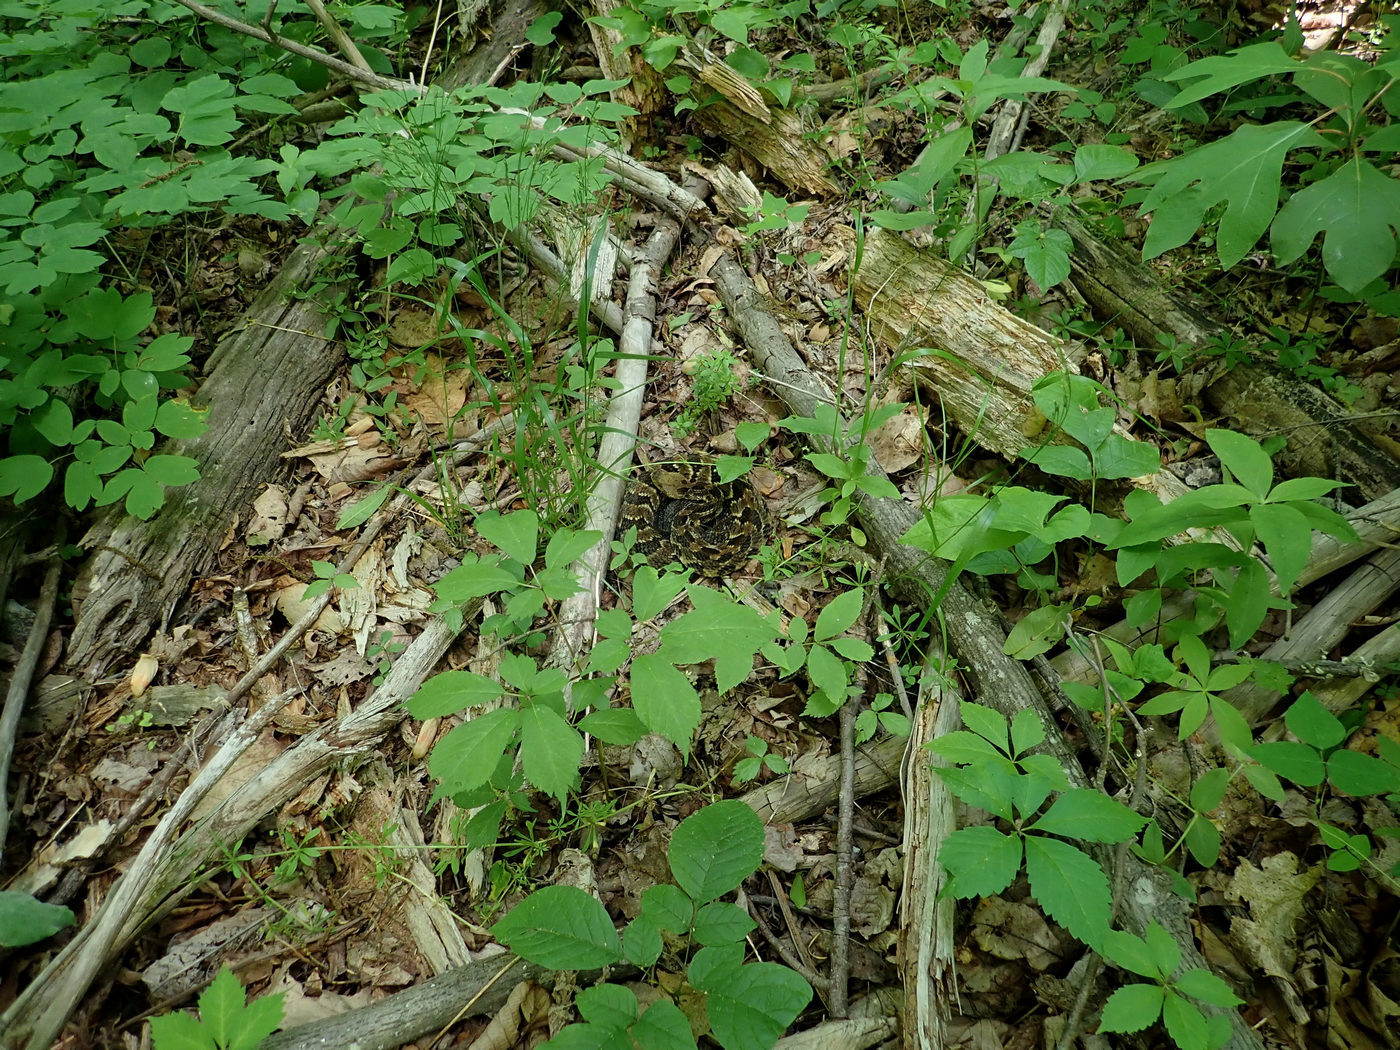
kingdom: Animalia
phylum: Chordata
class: Squamata
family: Viperidae
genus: Crotalus
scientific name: Crotalus horridus
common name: Timber rattlesnake
